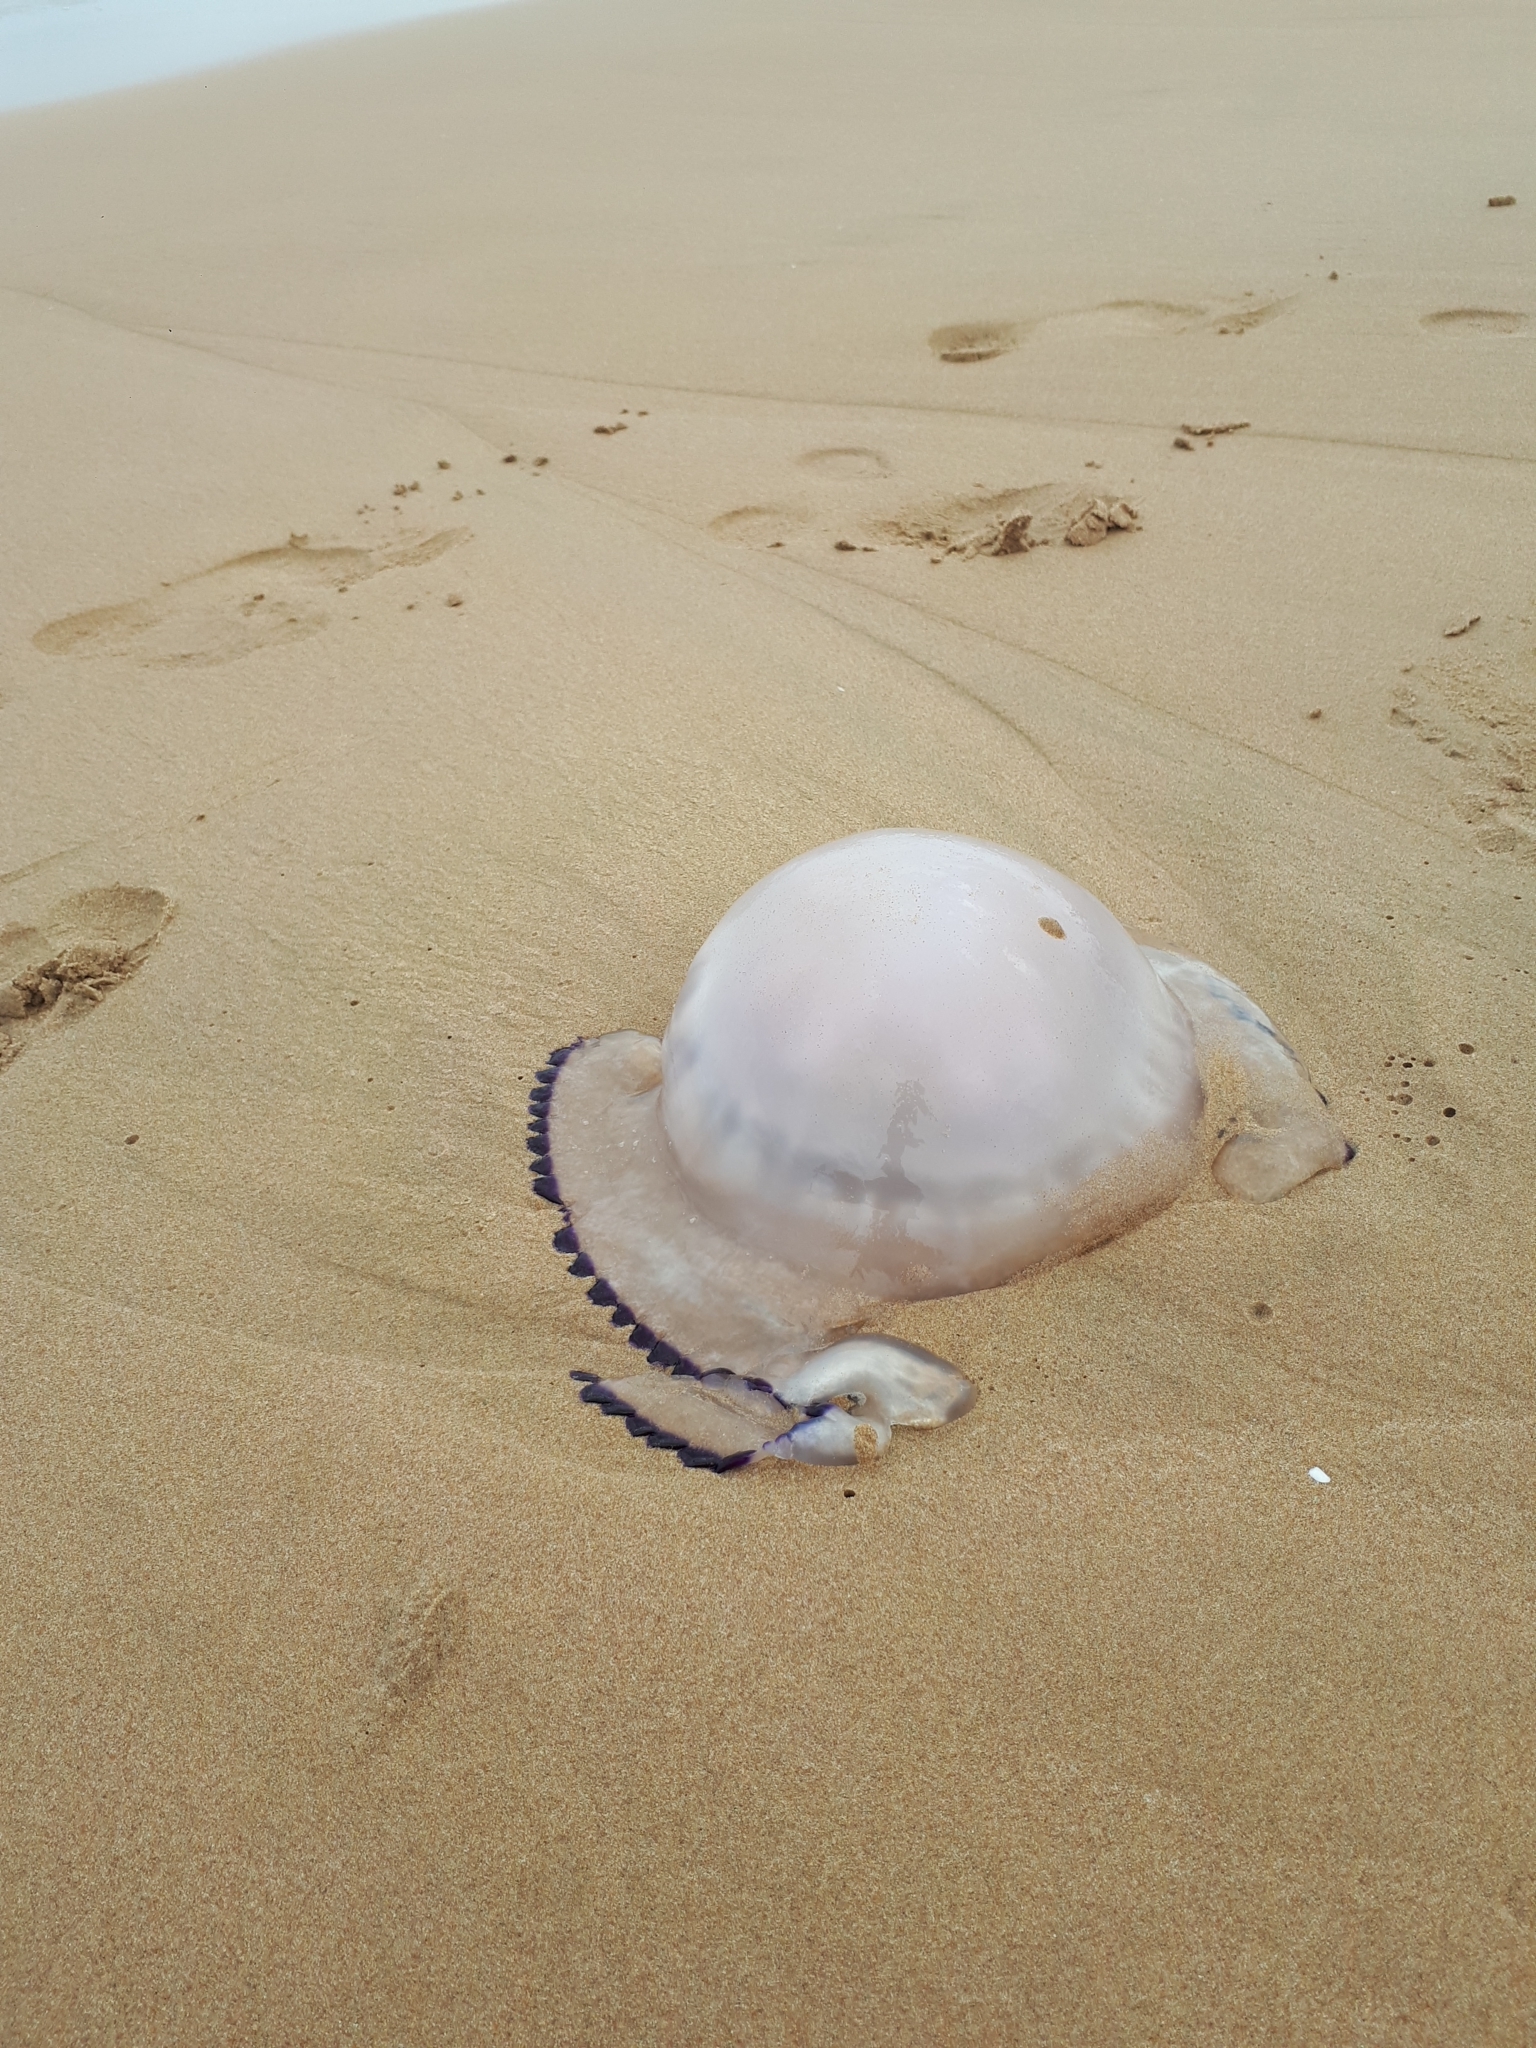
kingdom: Animalia
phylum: Cnidaria
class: Scyphozoa
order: Rhizostomeae
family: Rhizostomatidae
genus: Rhizostoma
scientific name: Rhizostoma pulmo
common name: Barrel jellyfish
